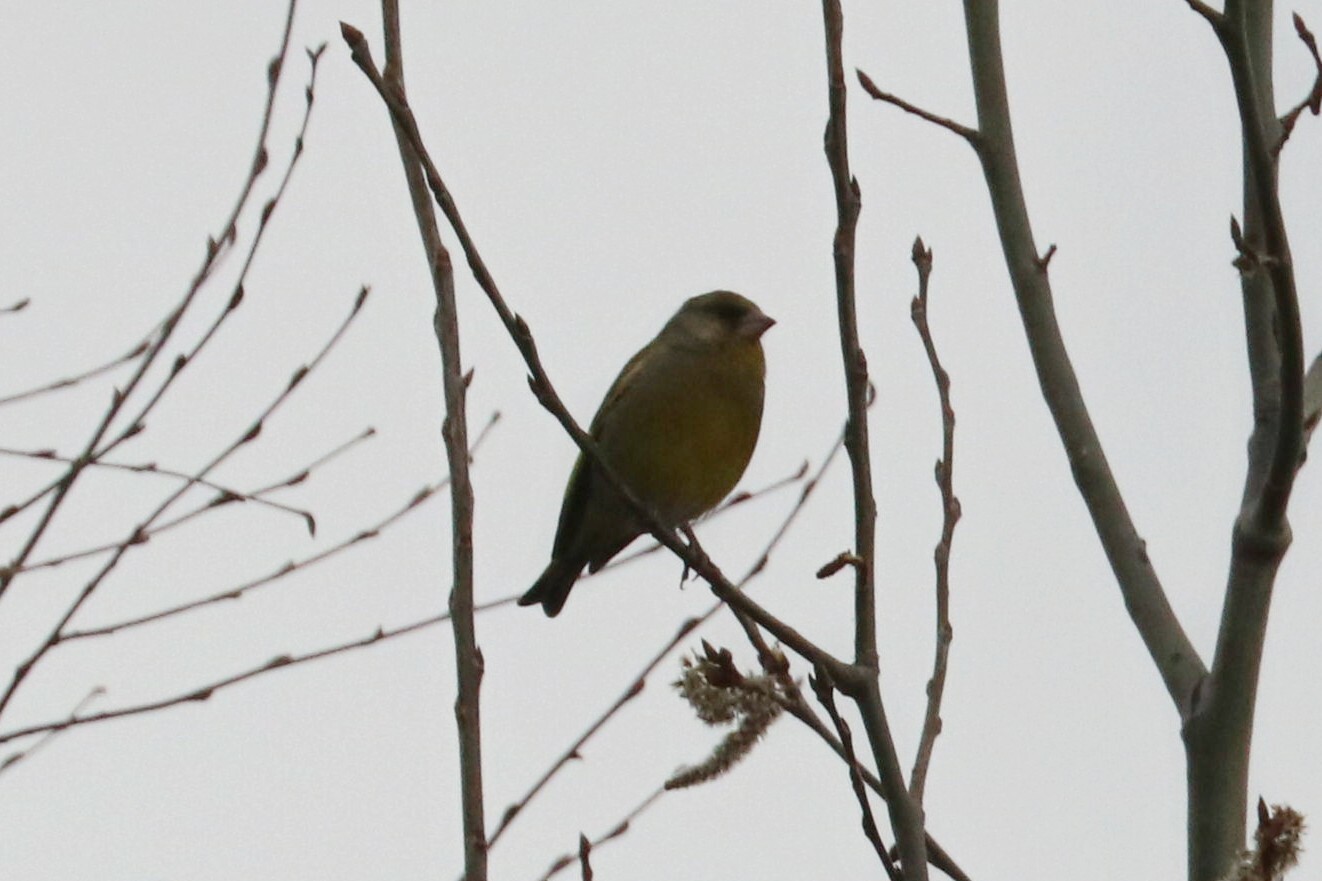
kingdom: Plantae
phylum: Tracheophyta
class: Liliopsida
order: Poales
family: Poaceae
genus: Chloris
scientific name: Chloris chloris
